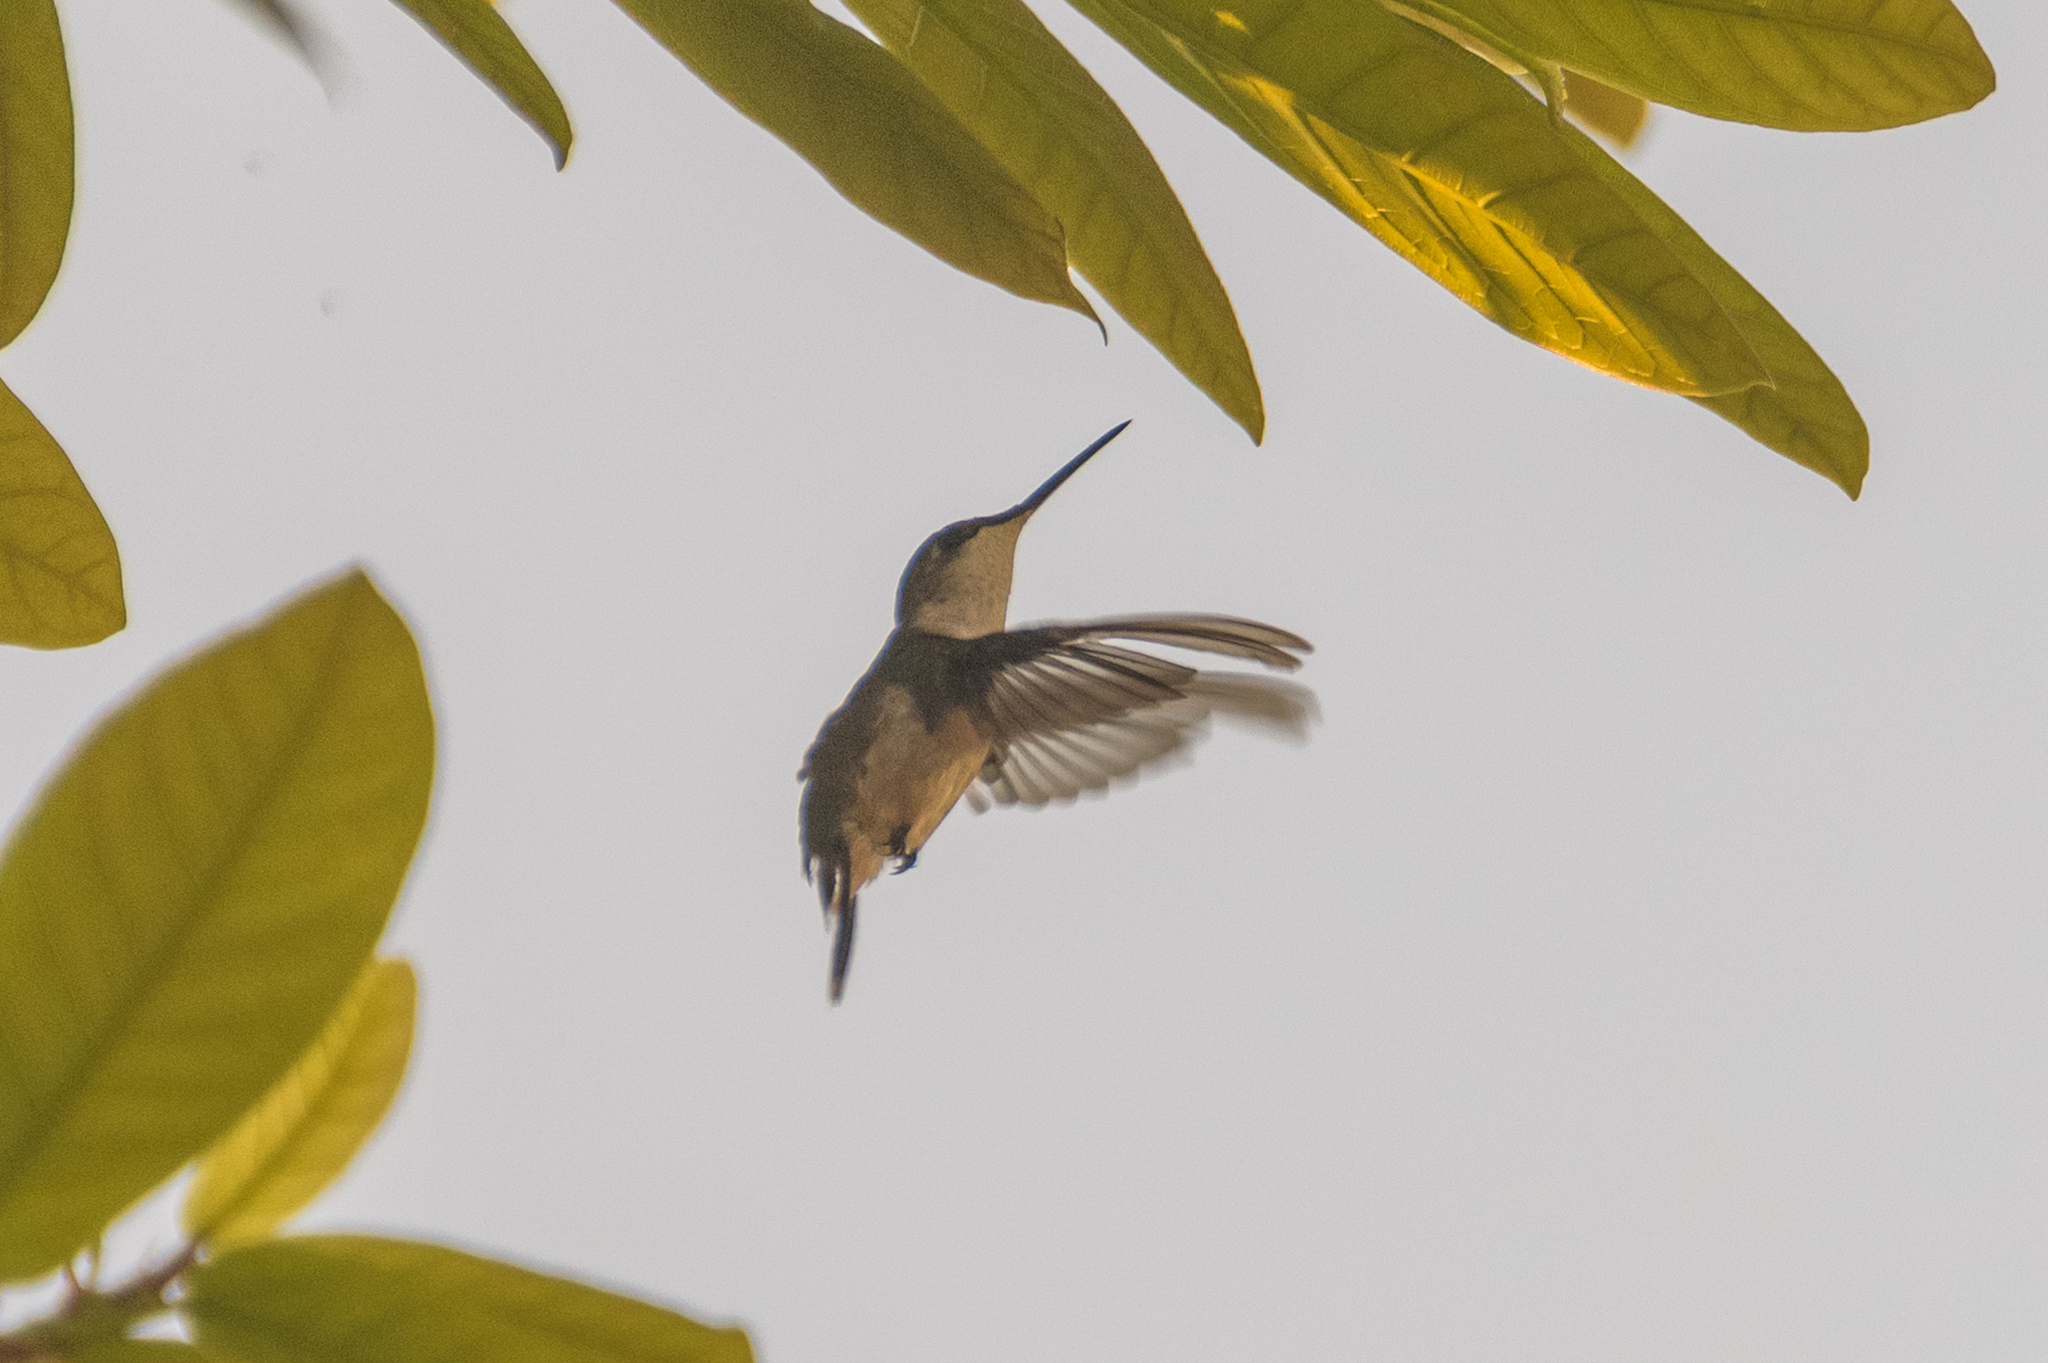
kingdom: Animalia
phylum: Chordata
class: Aves
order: Apodiformes
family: Trochilidae
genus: Archilochus
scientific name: Archilochus colubris
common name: Ruby-throated hummingbird
